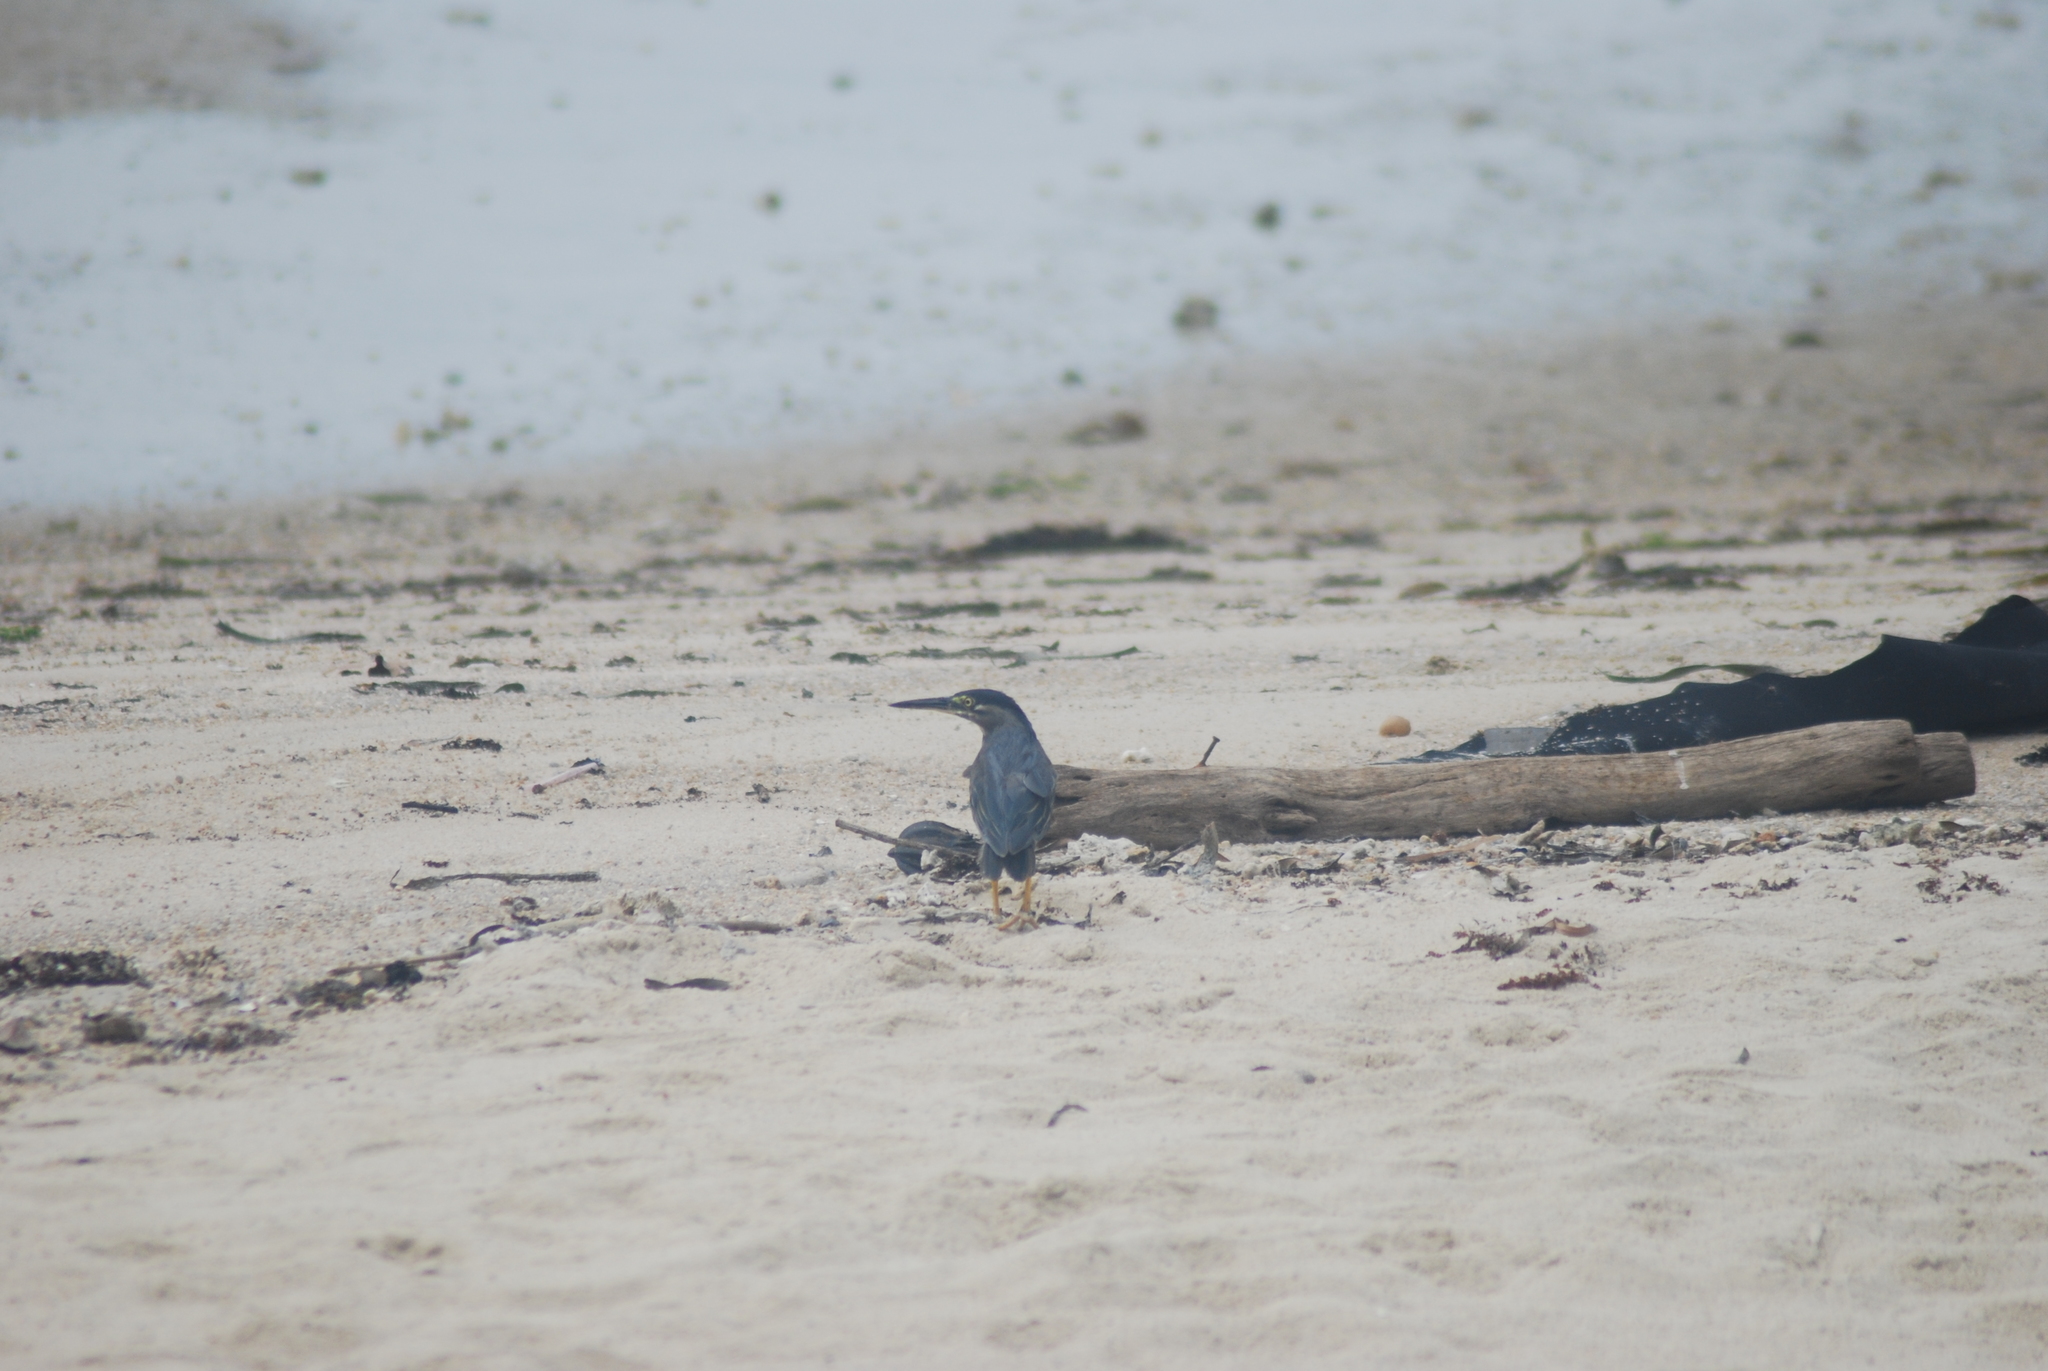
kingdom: Animalia
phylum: Chordata
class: Aves
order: Pelecaniformes
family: Ardeidae
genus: Butorides
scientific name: Butorides striata
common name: Striated heron
